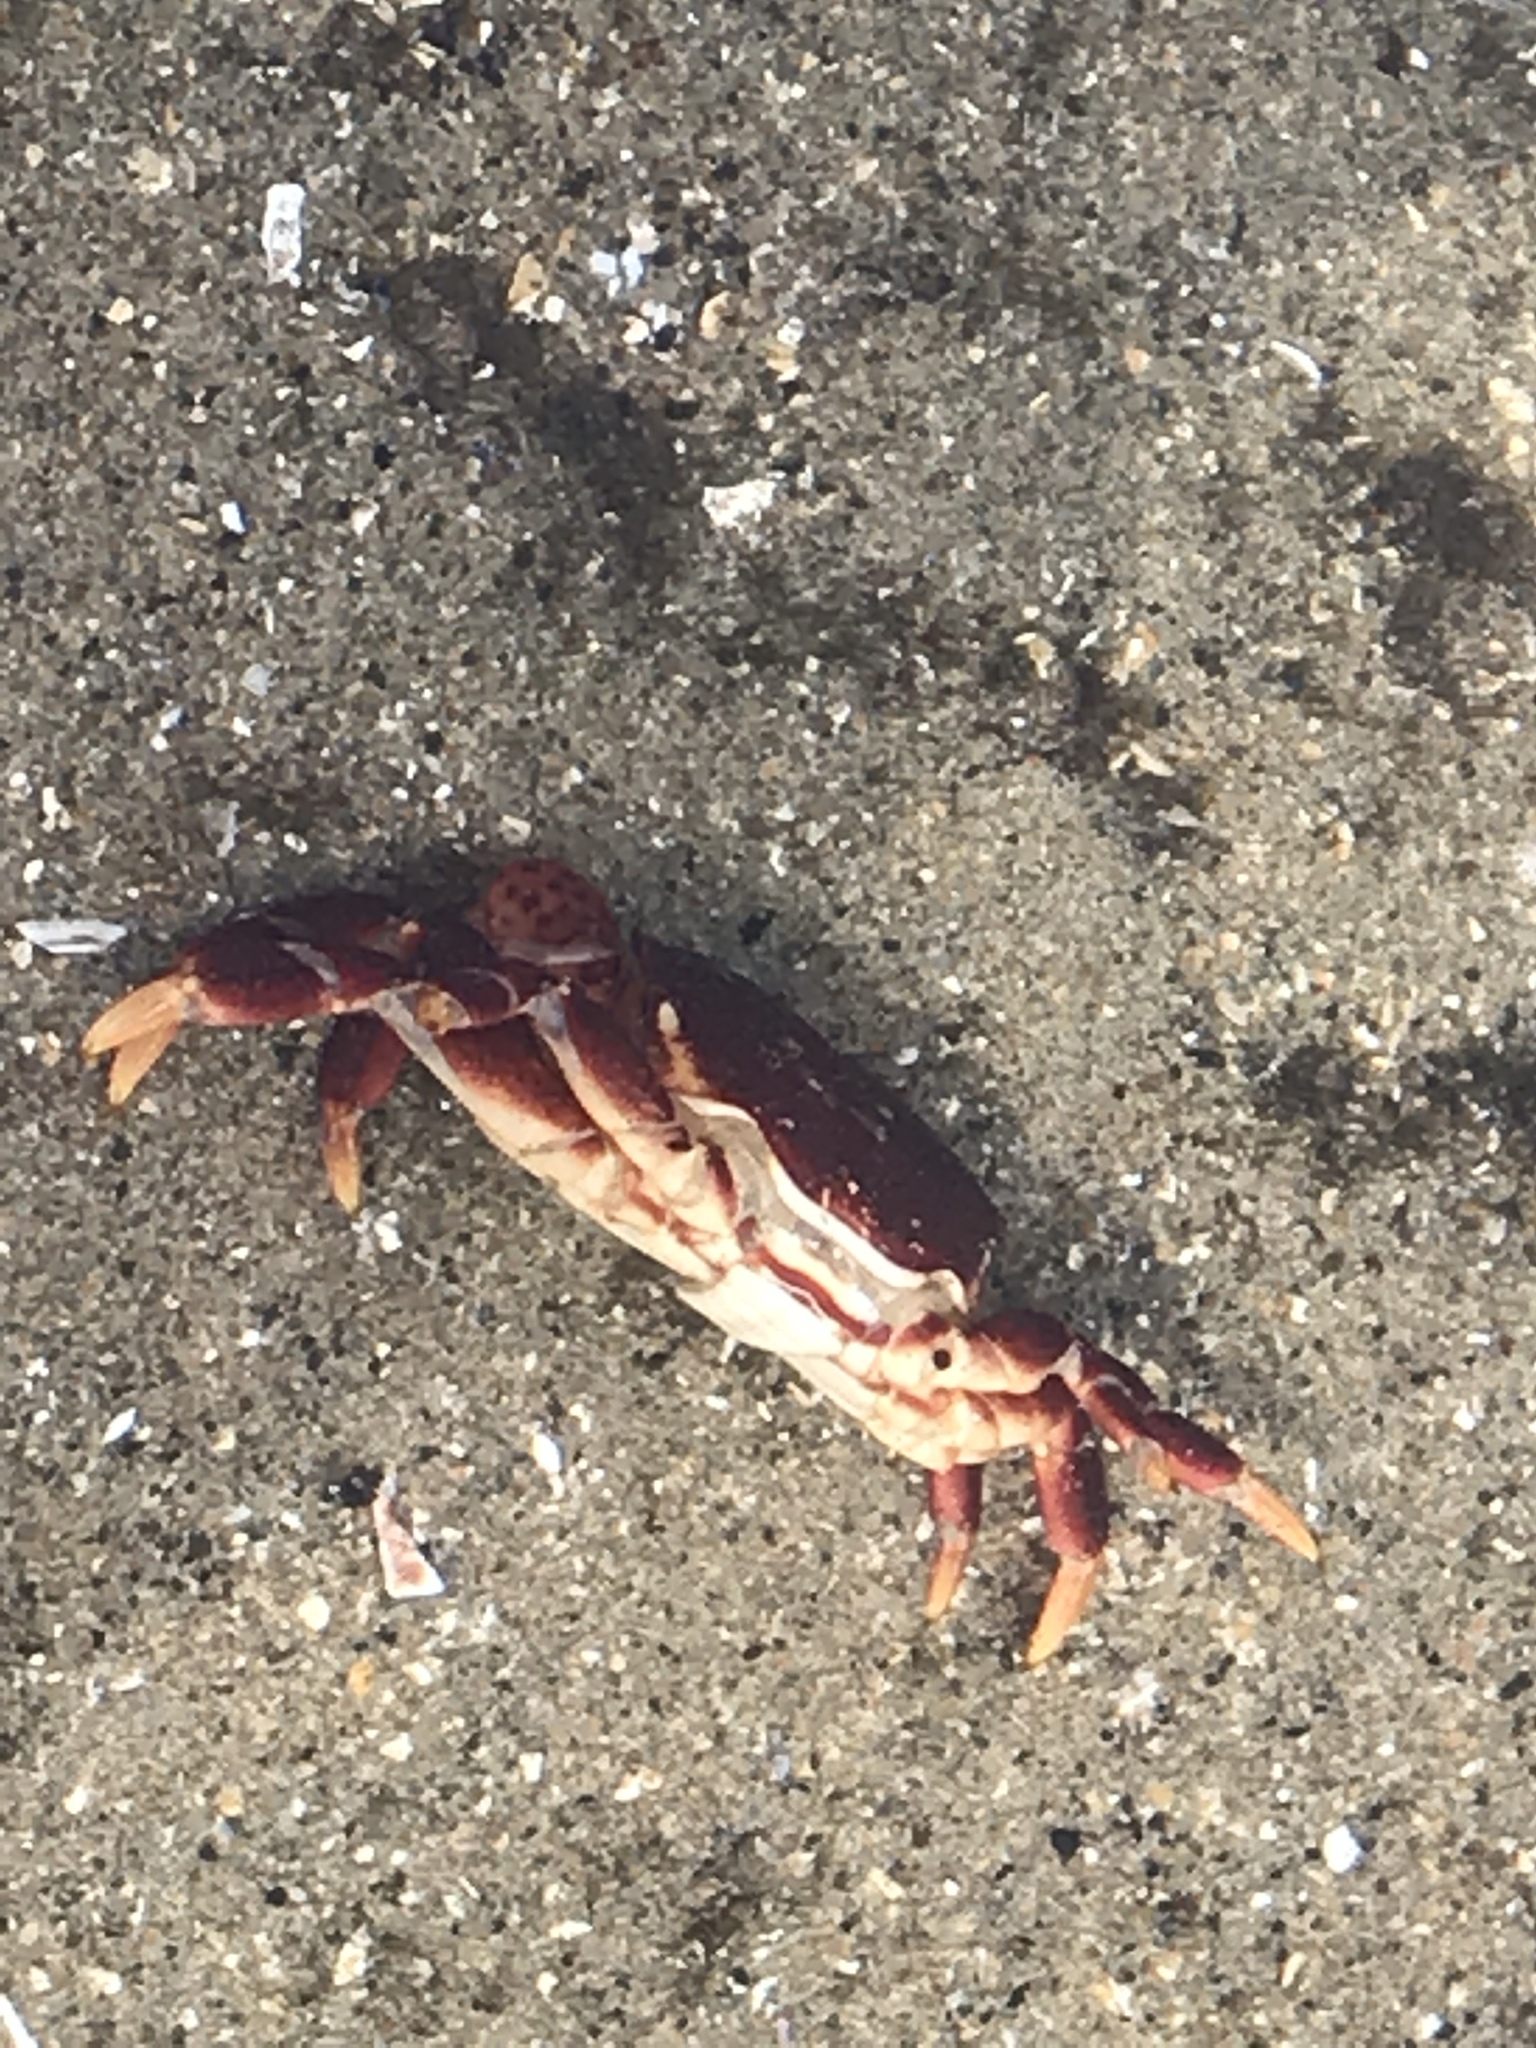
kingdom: Animalia
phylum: Arthropoda
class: Malacostraca
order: Decapoda
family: Varunidae
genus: Hemigrapsus
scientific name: Hemigrapsus nudus
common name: Purple shore crab
